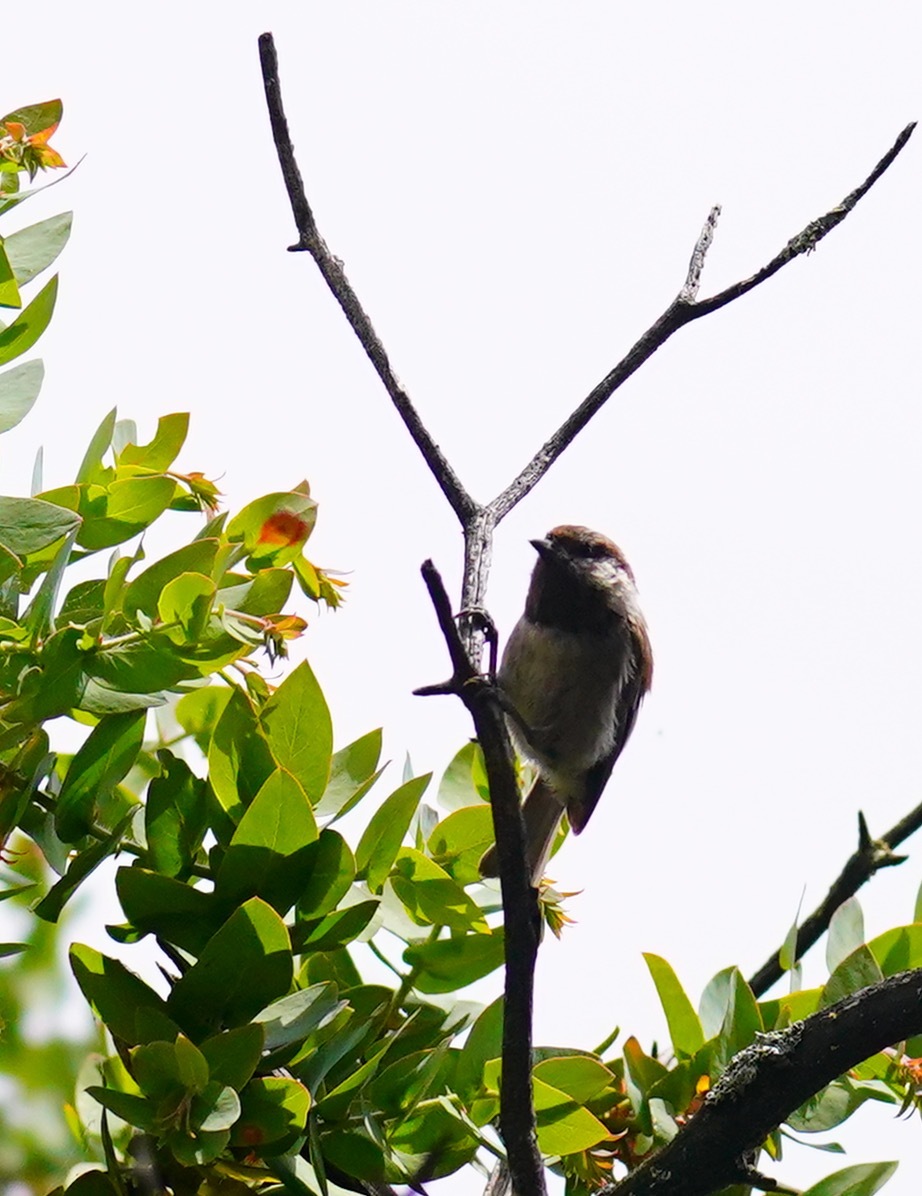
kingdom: Animalia
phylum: Chordata
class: Aves
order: Passeriformes
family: Paridae
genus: Poecile
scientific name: Poecile rufescens
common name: Chestnut-backed chickadee
